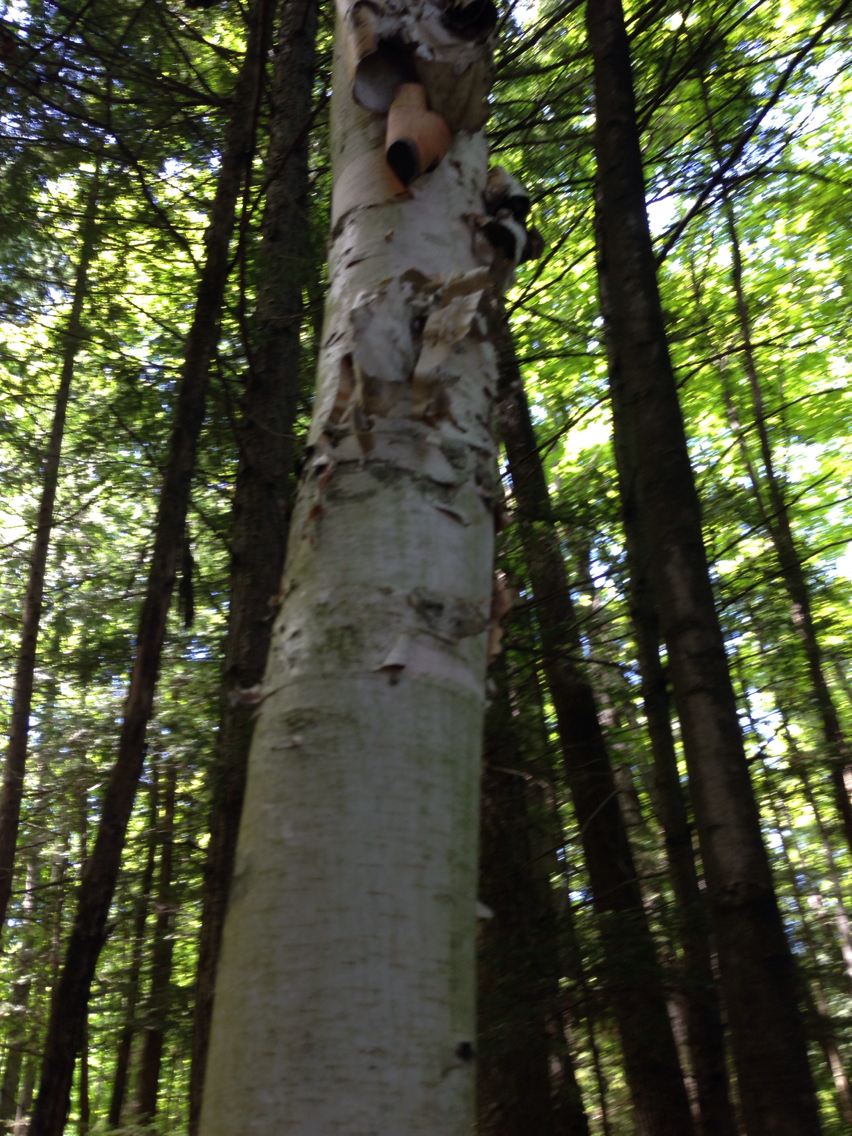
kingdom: Plantae
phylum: Tracheophyta
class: Magnoliopsida
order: Fagales
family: Betulaceae
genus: Betula
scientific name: Betula papyrifera
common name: Paper birch
